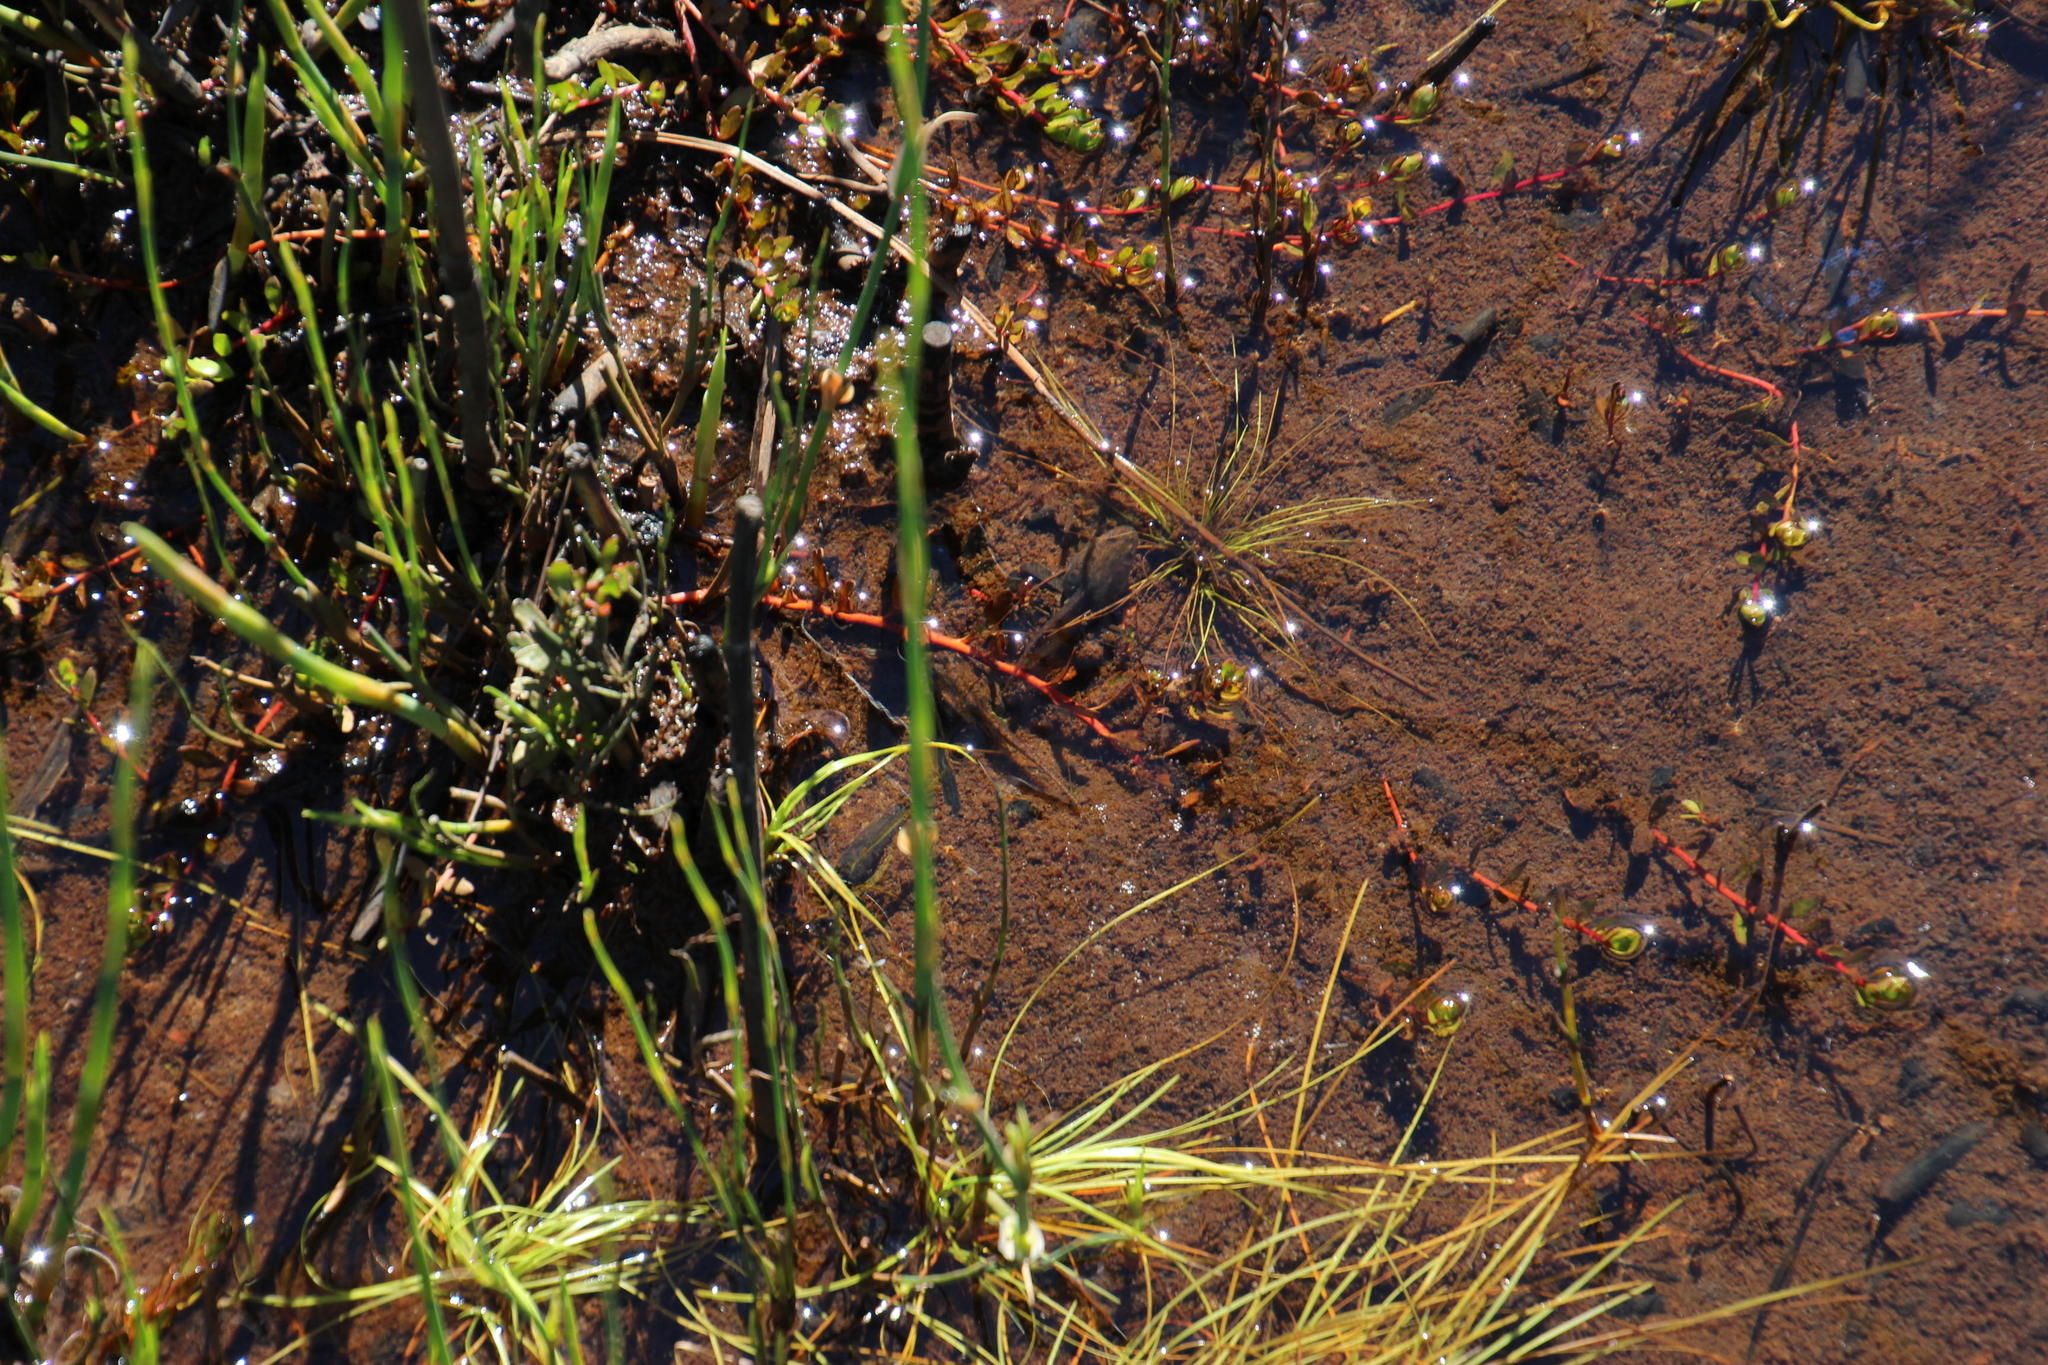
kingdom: Plantae
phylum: Tracheophyta
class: Magnoliopsida
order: Saxifragales
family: Haloragaceae
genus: Laurembergia
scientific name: Laurembergia repens
